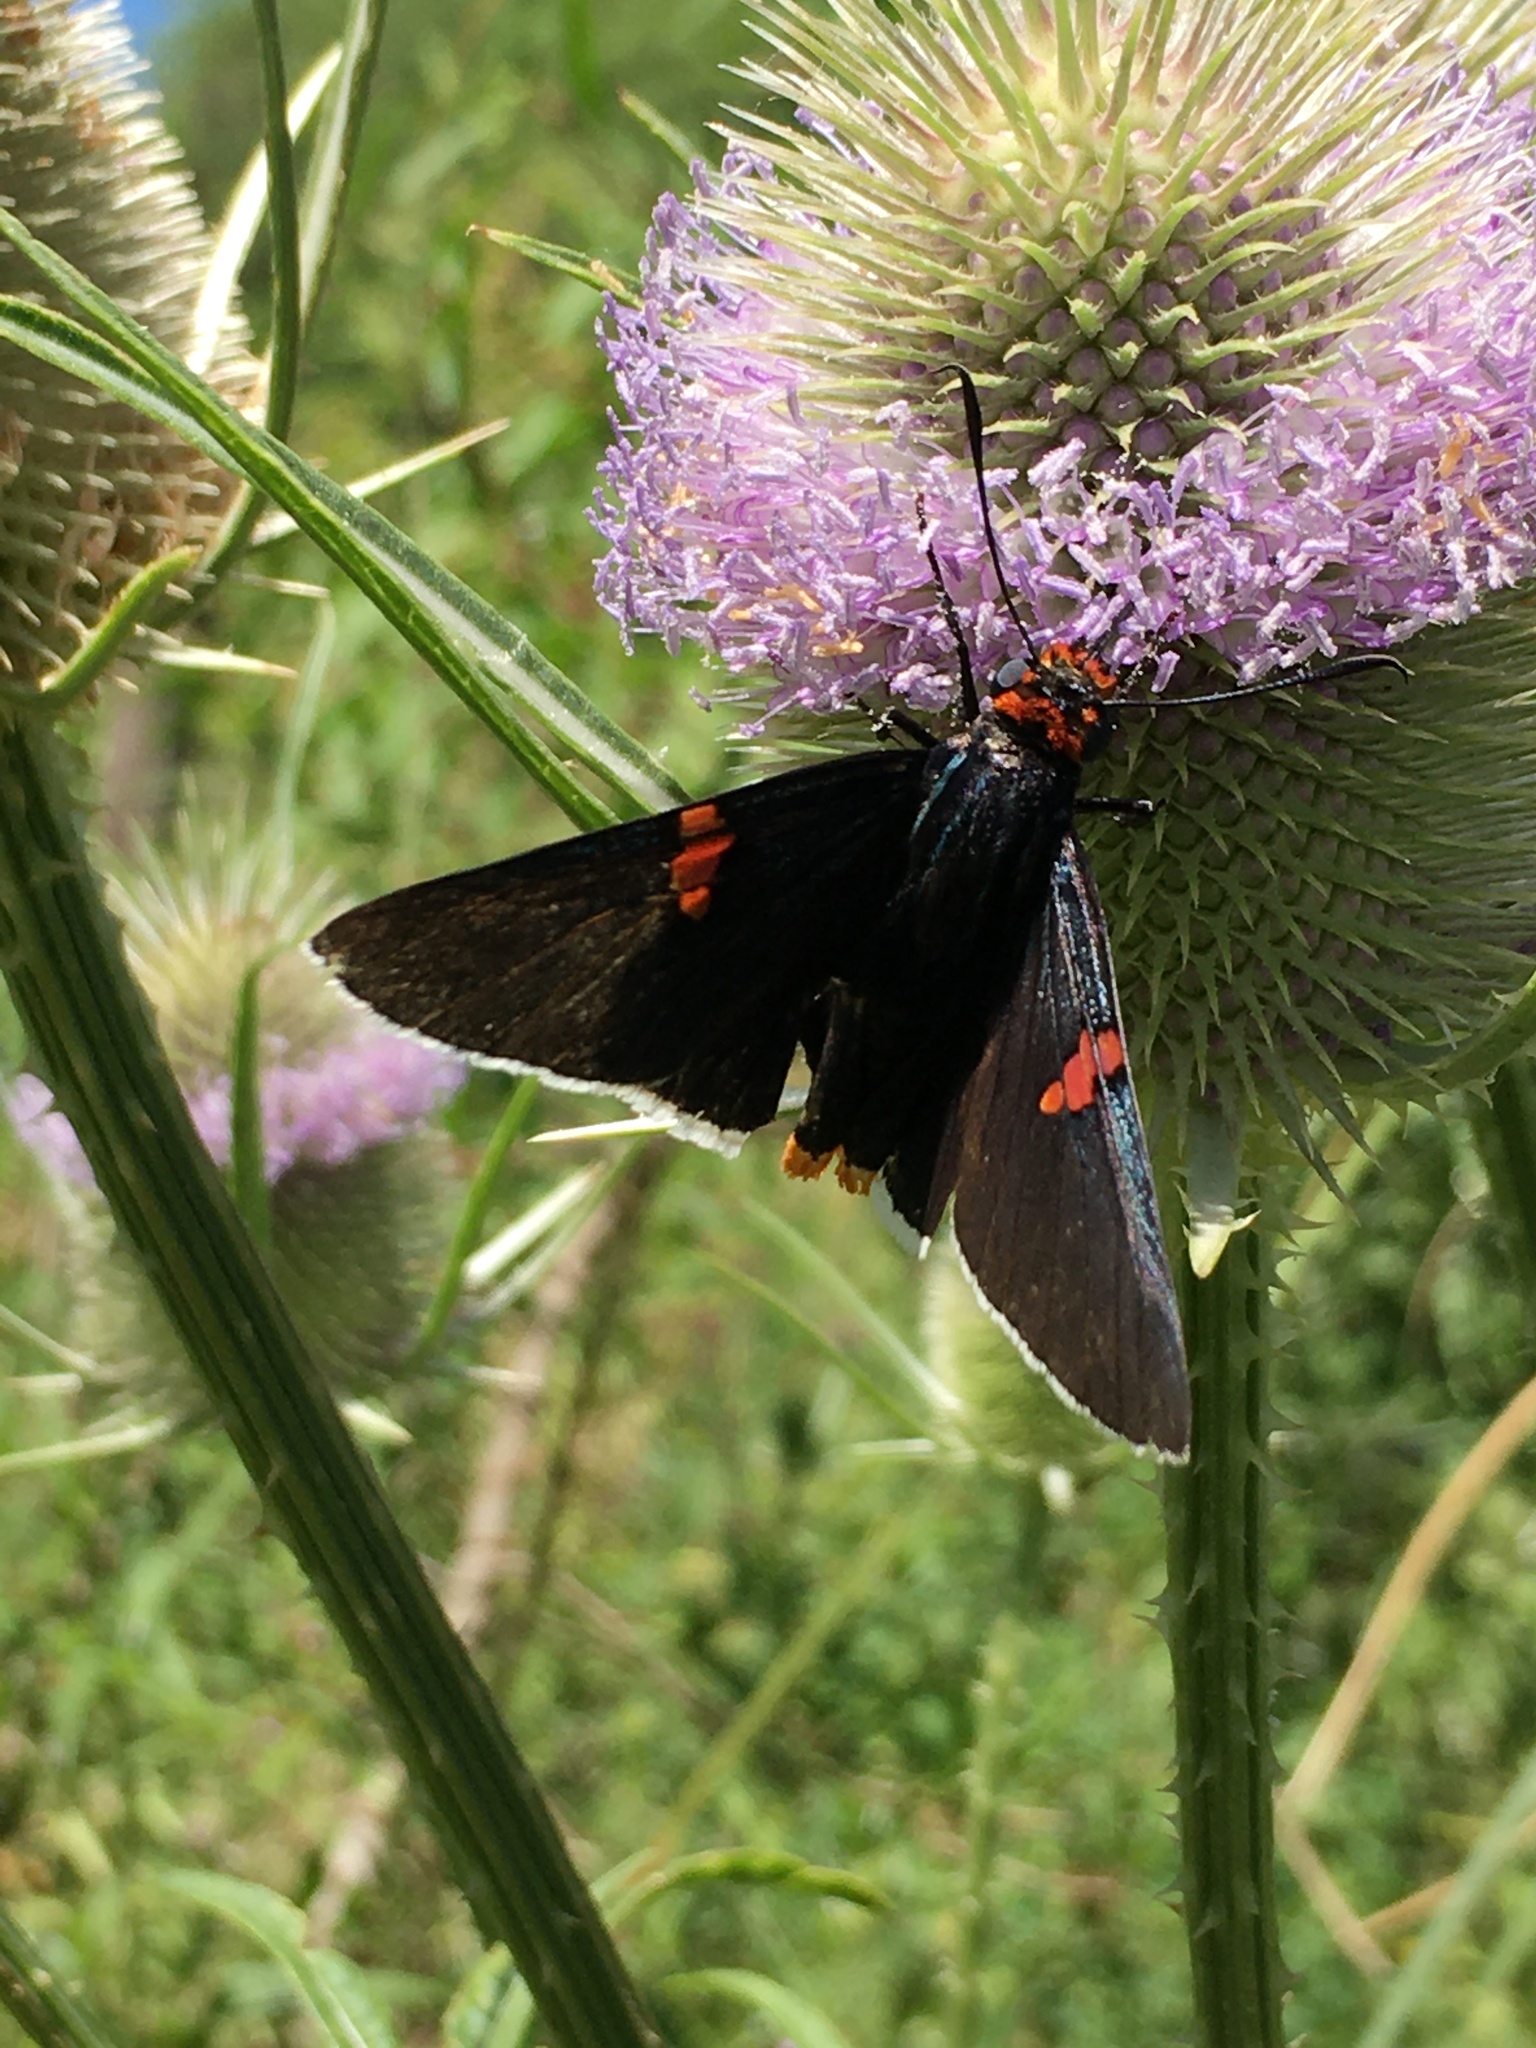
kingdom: Animalia
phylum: Arthropoda
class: Insecta
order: Lepidoptera
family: Hesperiidae
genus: Phocides
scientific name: Phocides polybius
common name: Guava skipper
